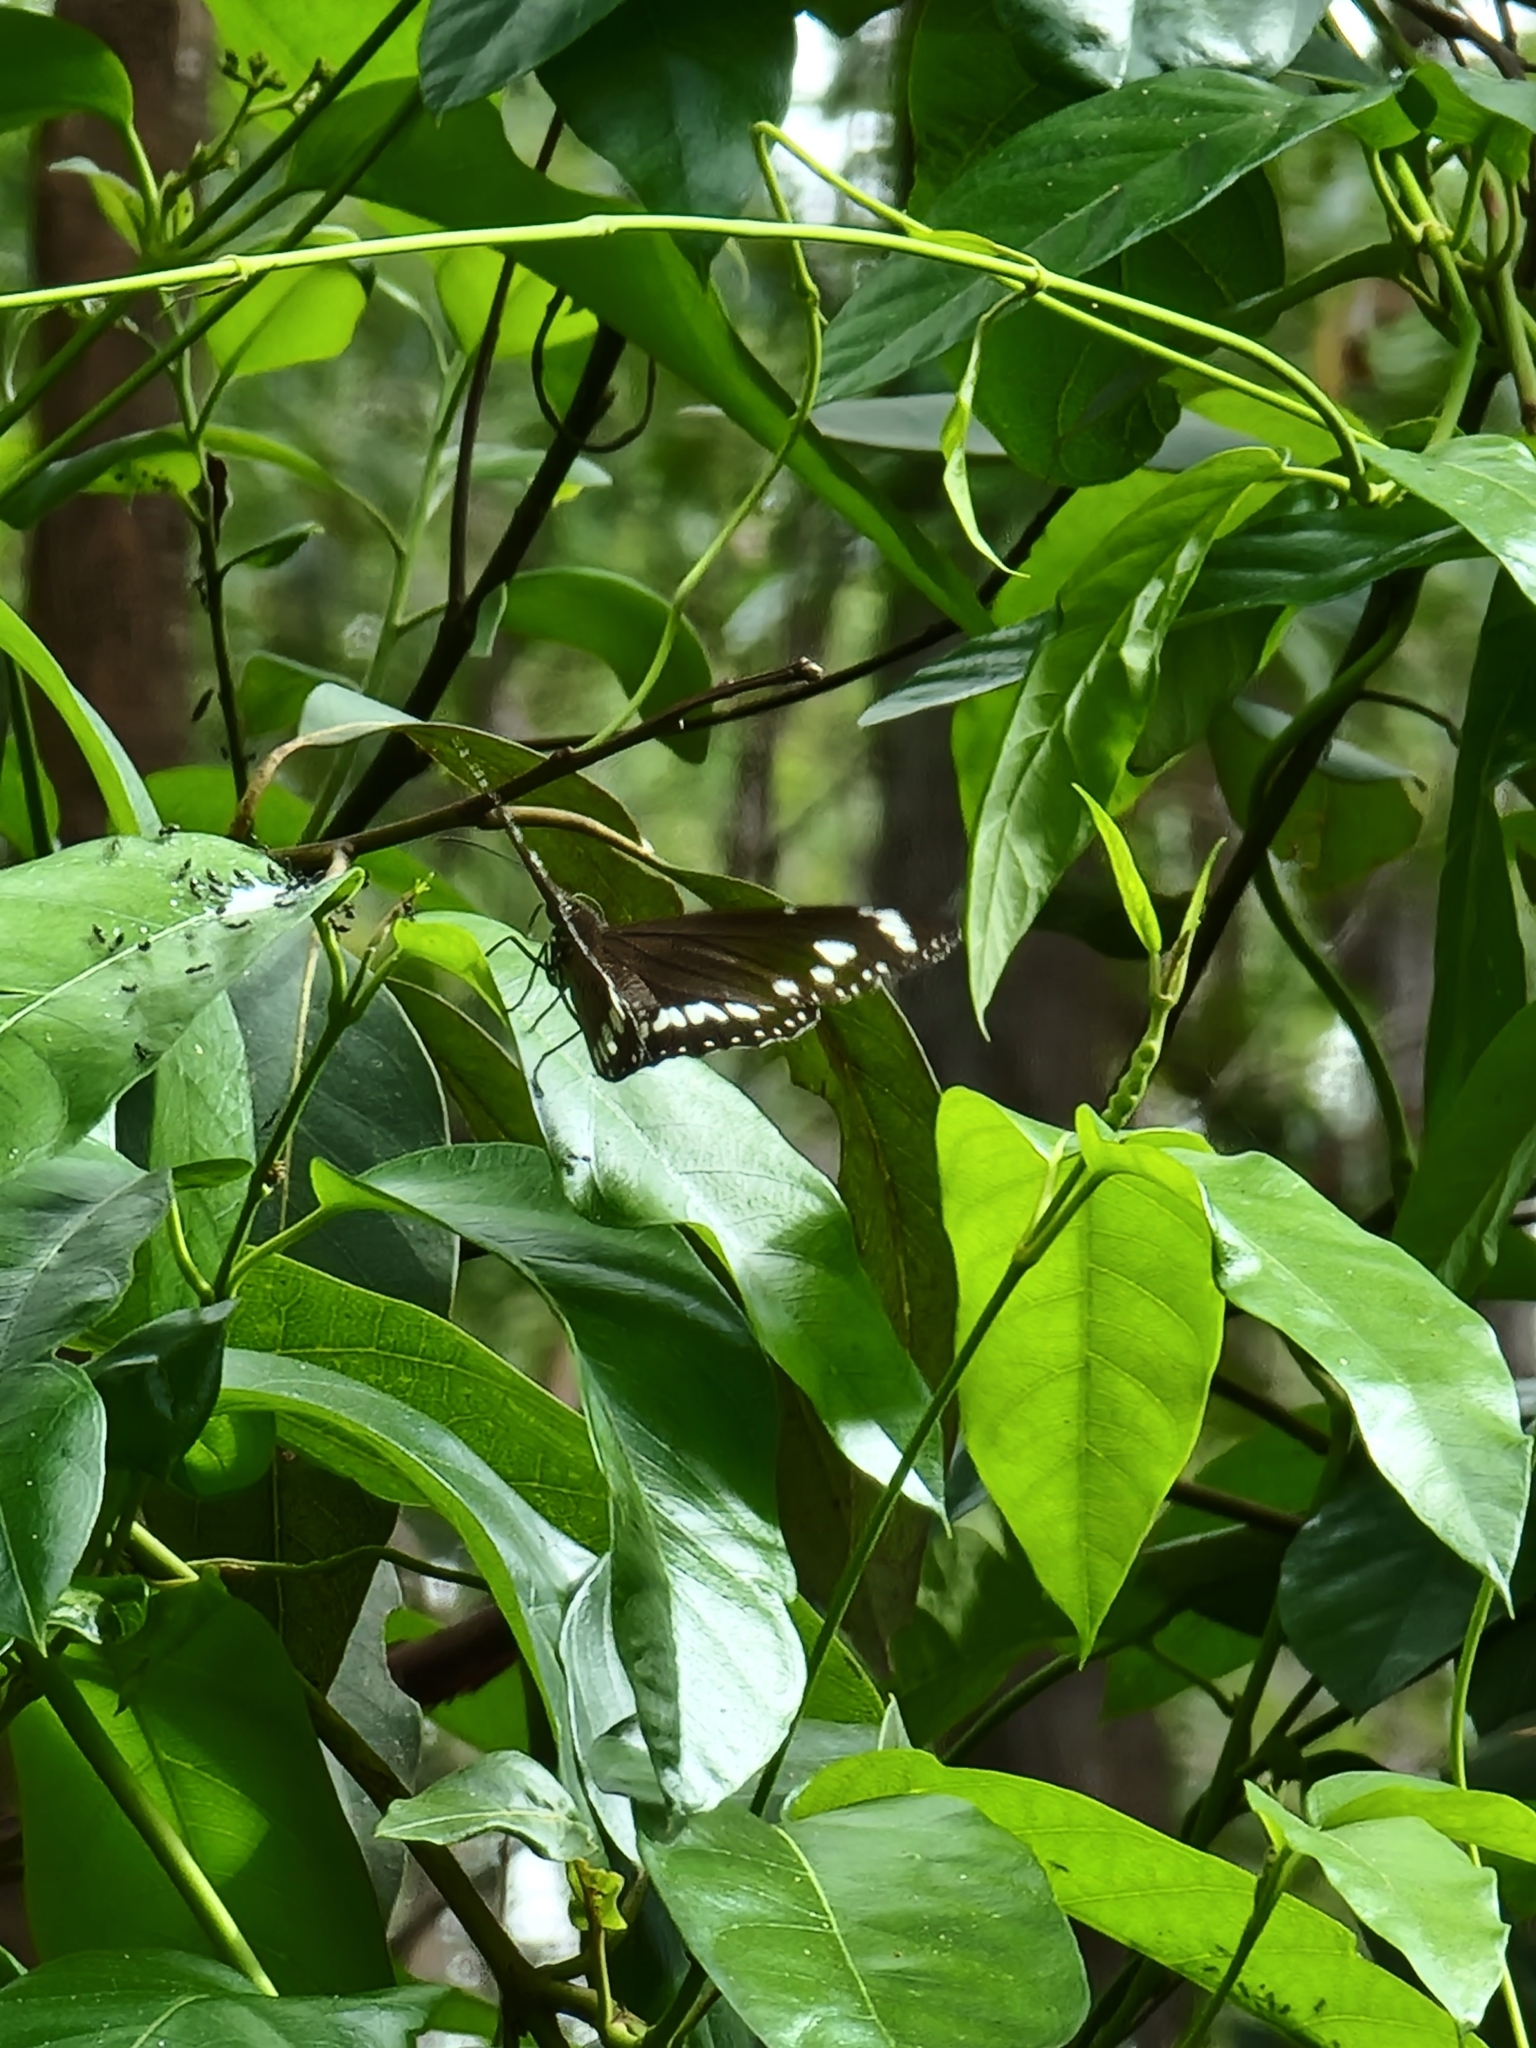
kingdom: Animalia
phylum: Arthropoda
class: Insecta
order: Lepidoptera
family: Nymphalidae
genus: Euploea
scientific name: Euploea core
